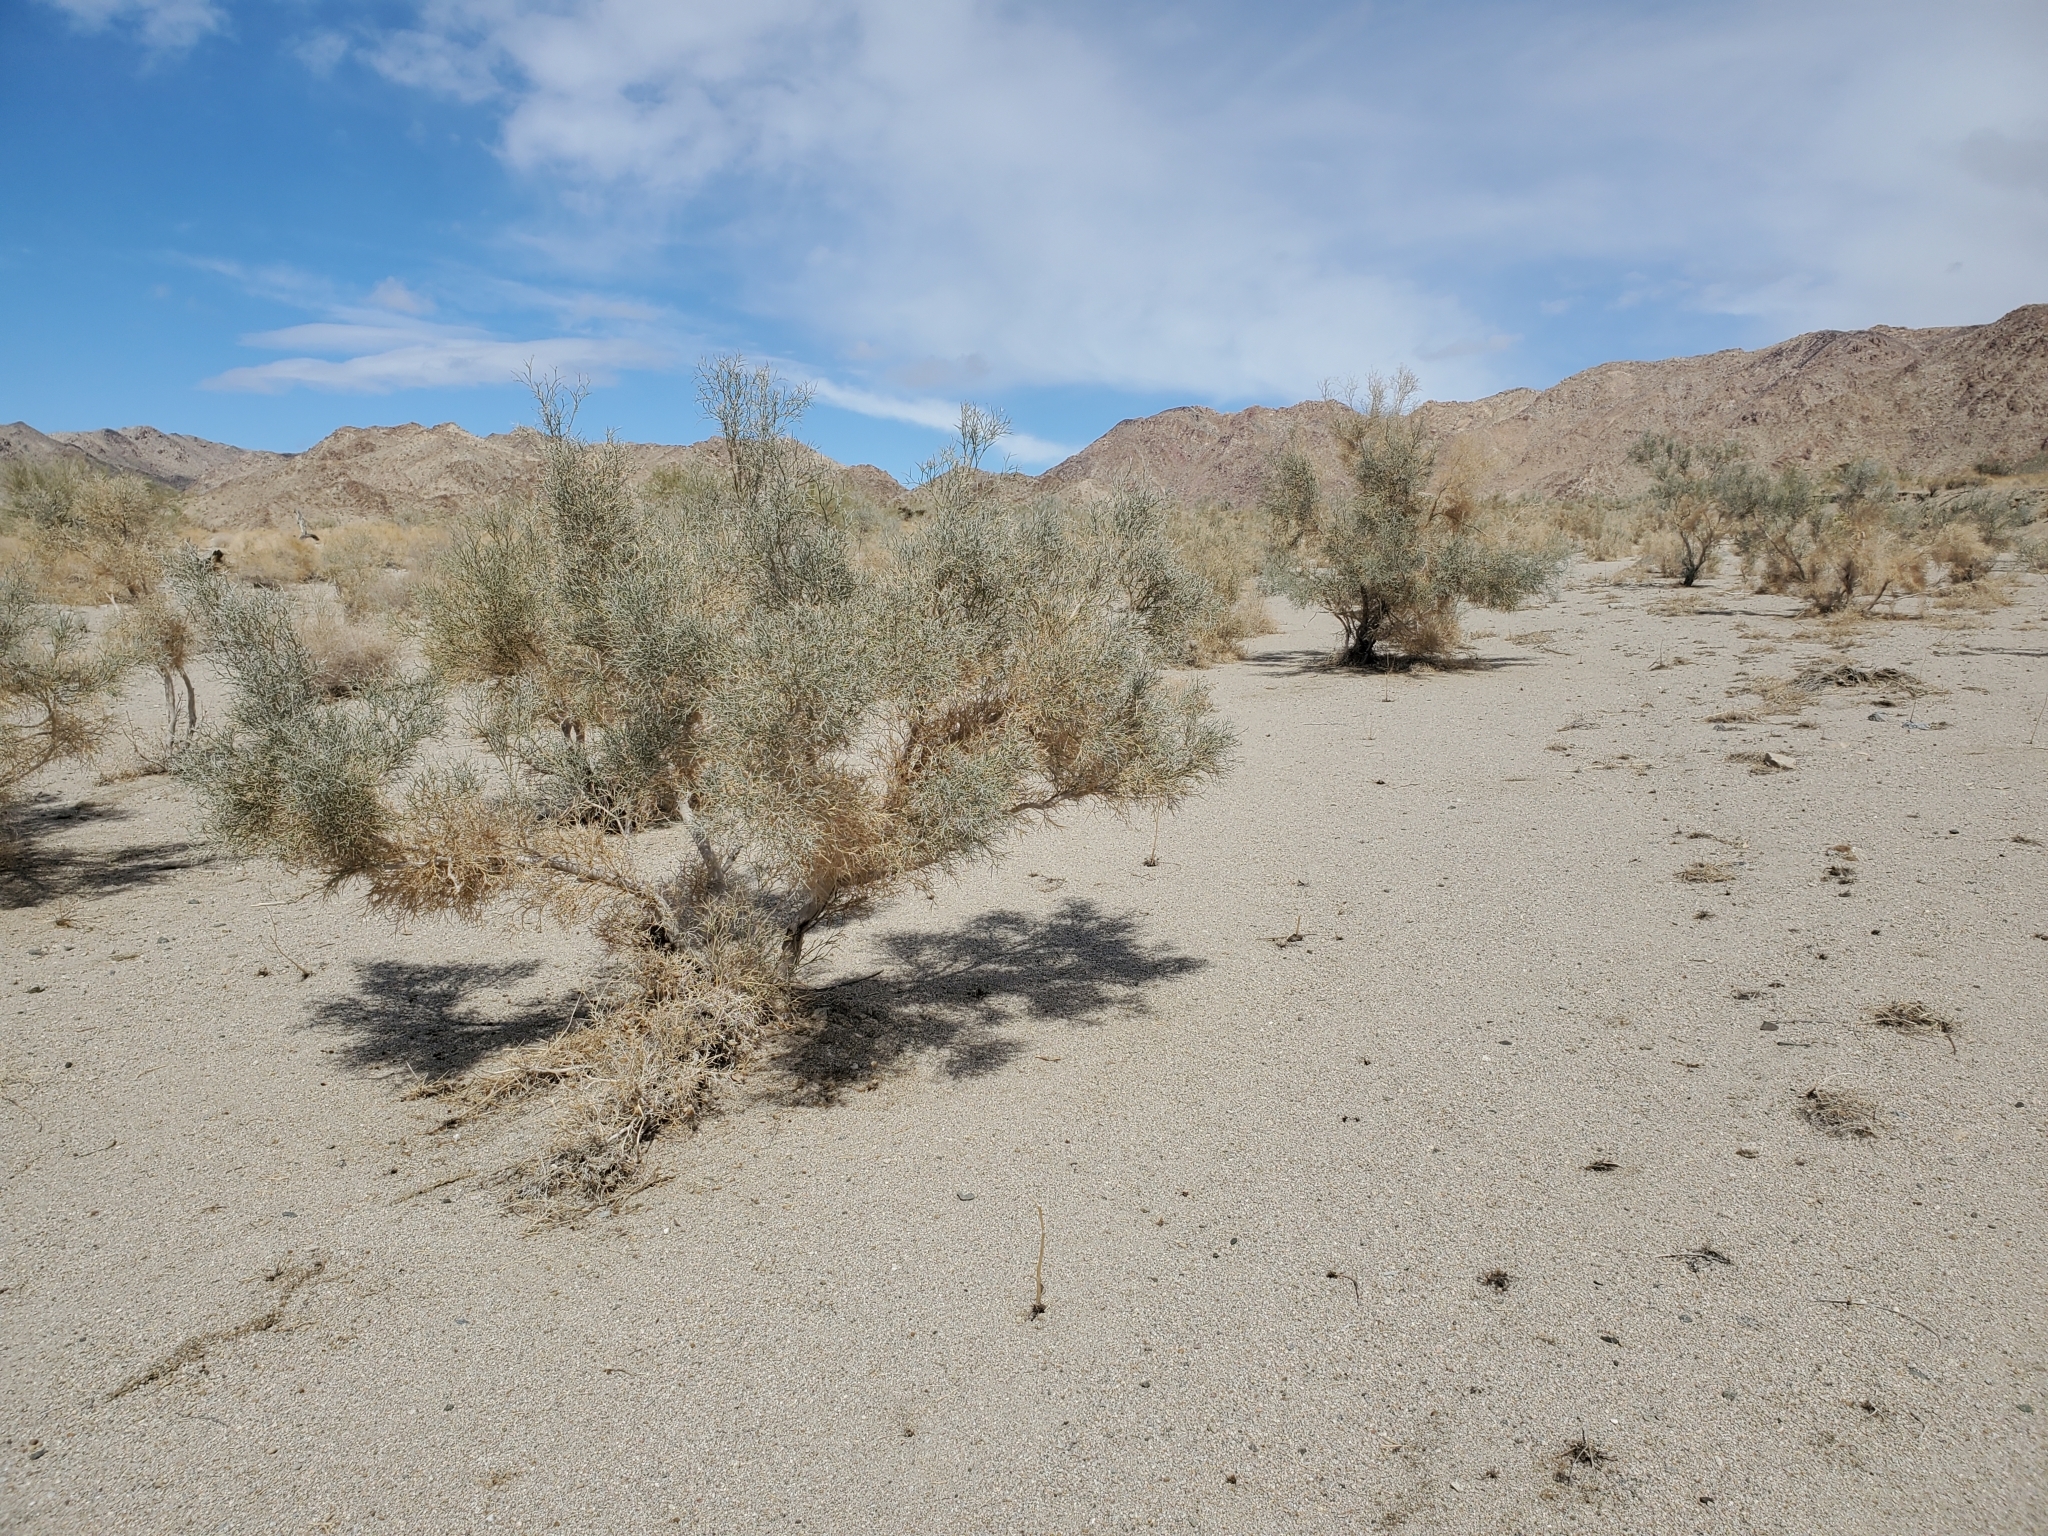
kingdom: Plantae
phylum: Tracheophyta
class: Magnoliopsida
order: Fabales
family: Fabaceae
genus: Psorothamnus
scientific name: Psorothamnus spinosus
